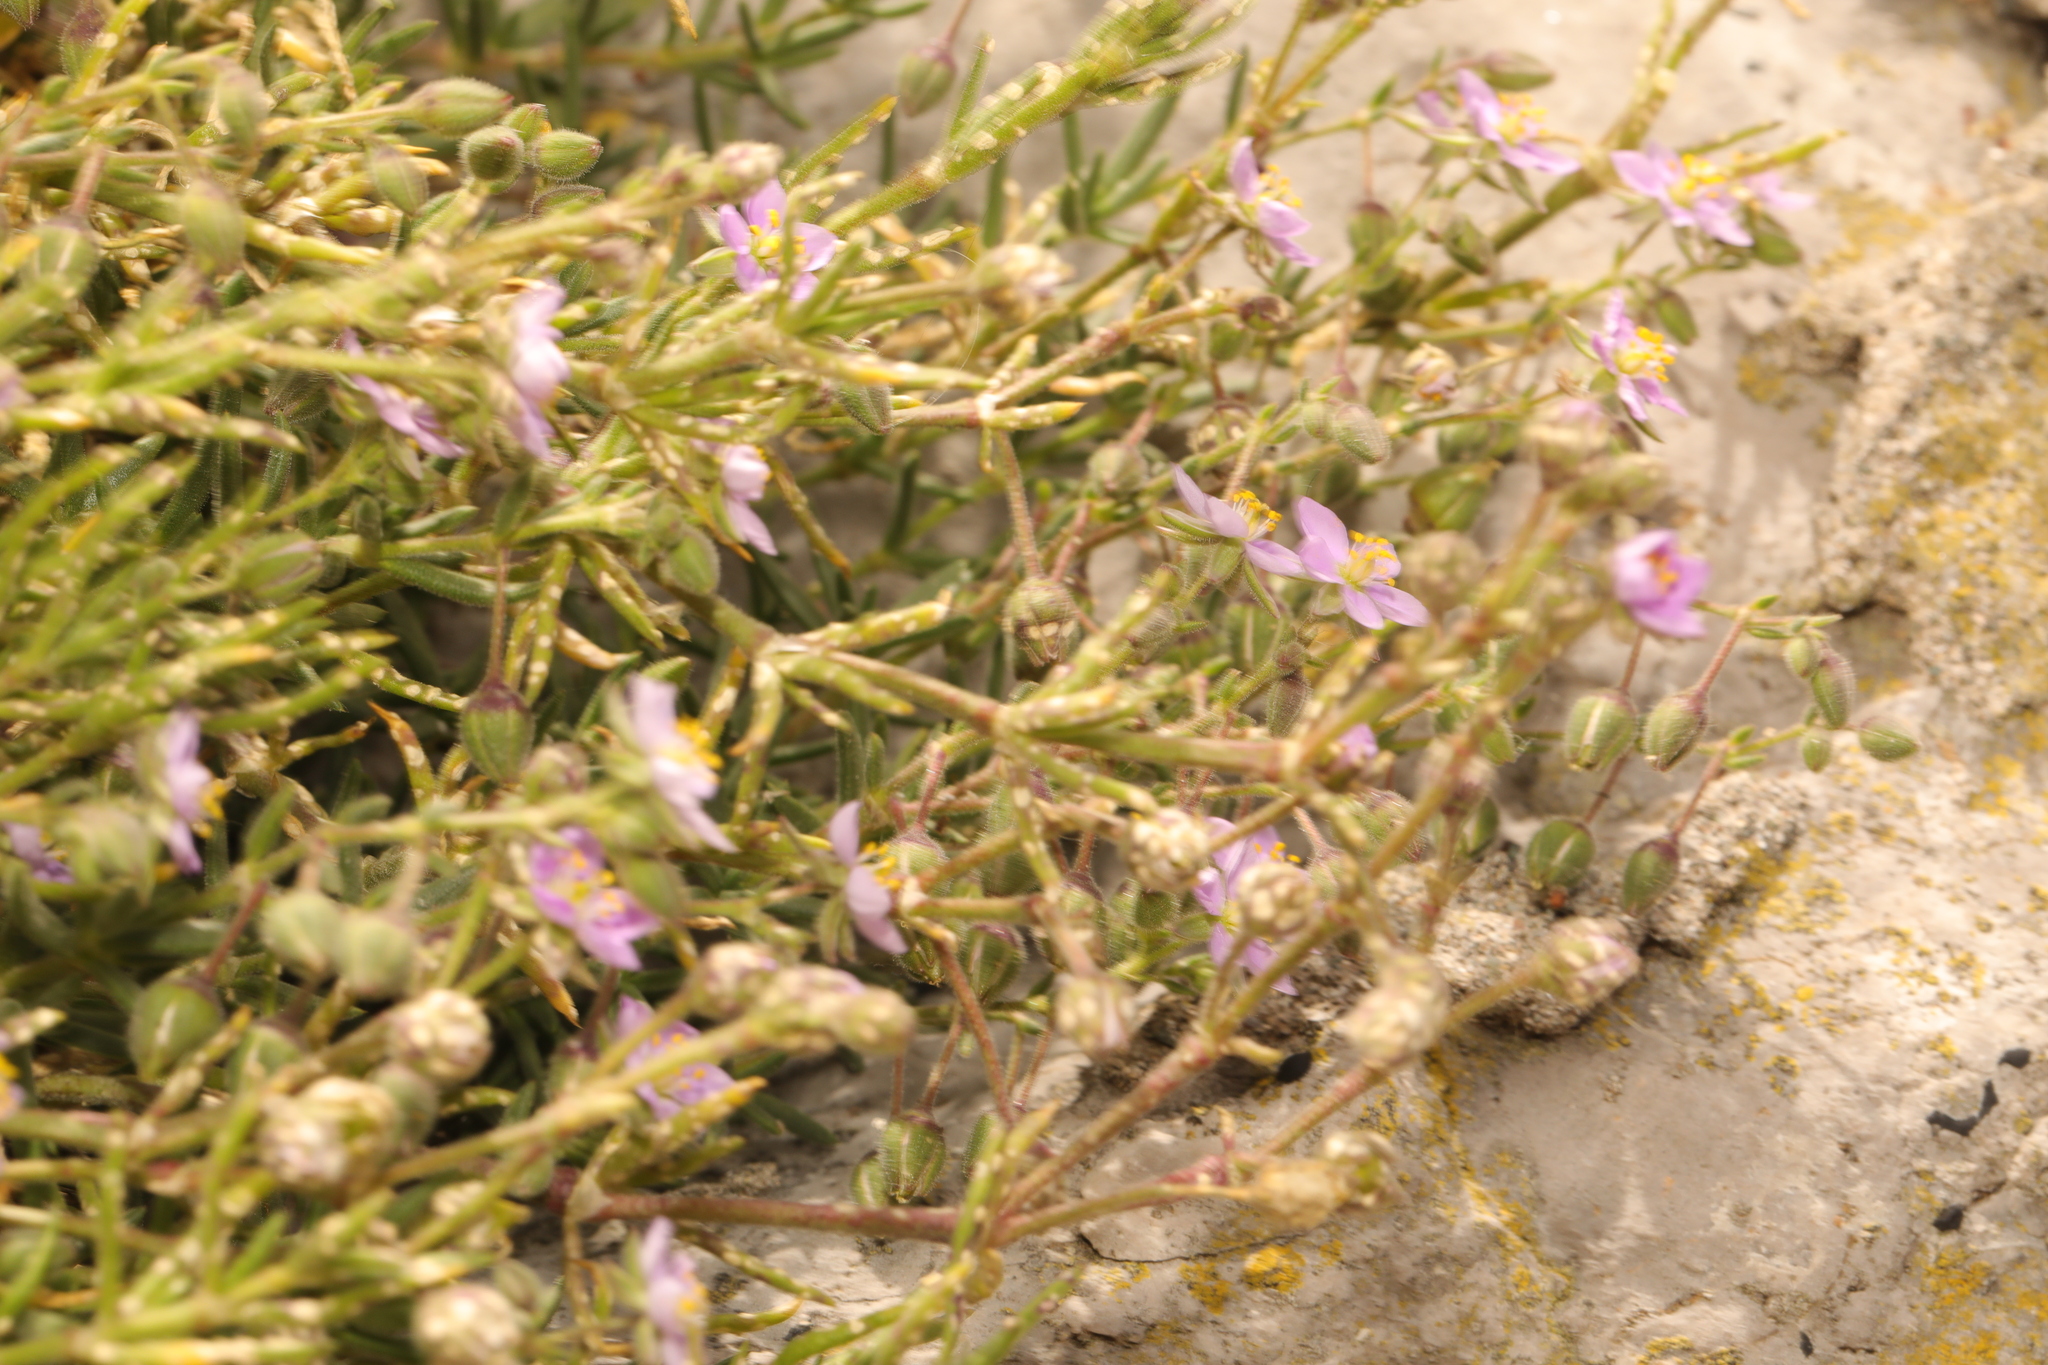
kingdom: Plantae
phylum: Tracheophyta
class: Magnoliopsida
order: Caryophyllales
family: Caryophyllaceae
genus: Spergularia
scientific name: Spergularia marina
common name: Lesser sea-spurrey
